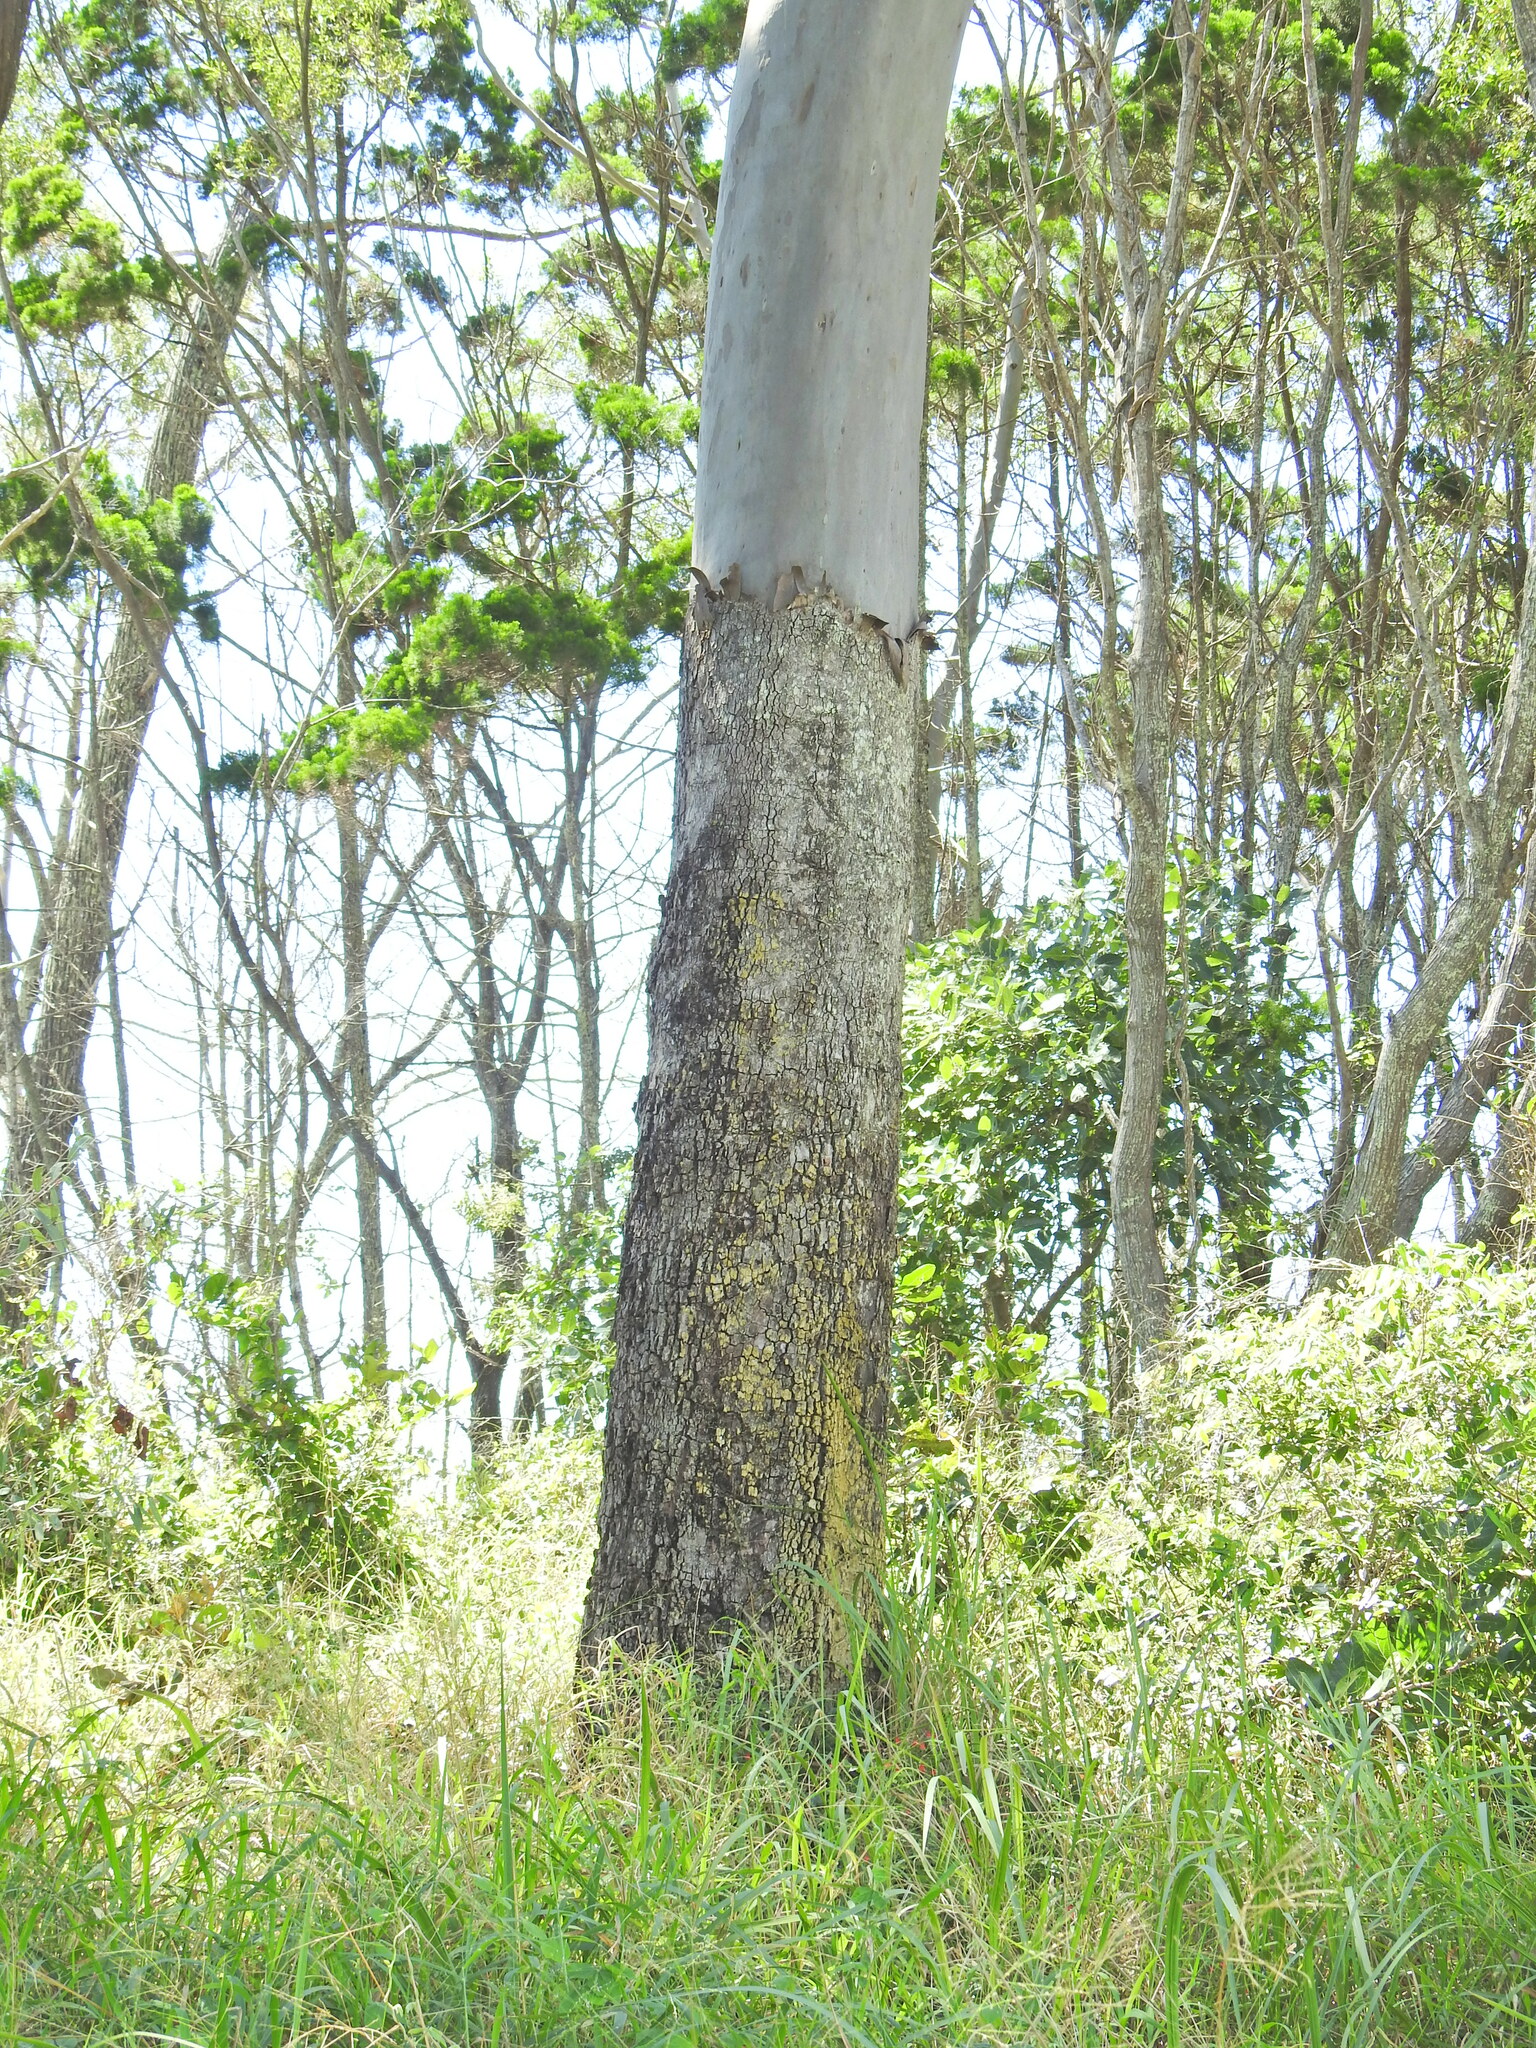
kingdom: Plantae
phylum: Tracheophyta
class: Magnoliopsida
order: Myrtales
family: Myrtaceae
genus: Corymbia
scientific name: Corymbia tessellaris
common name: Carbeen
